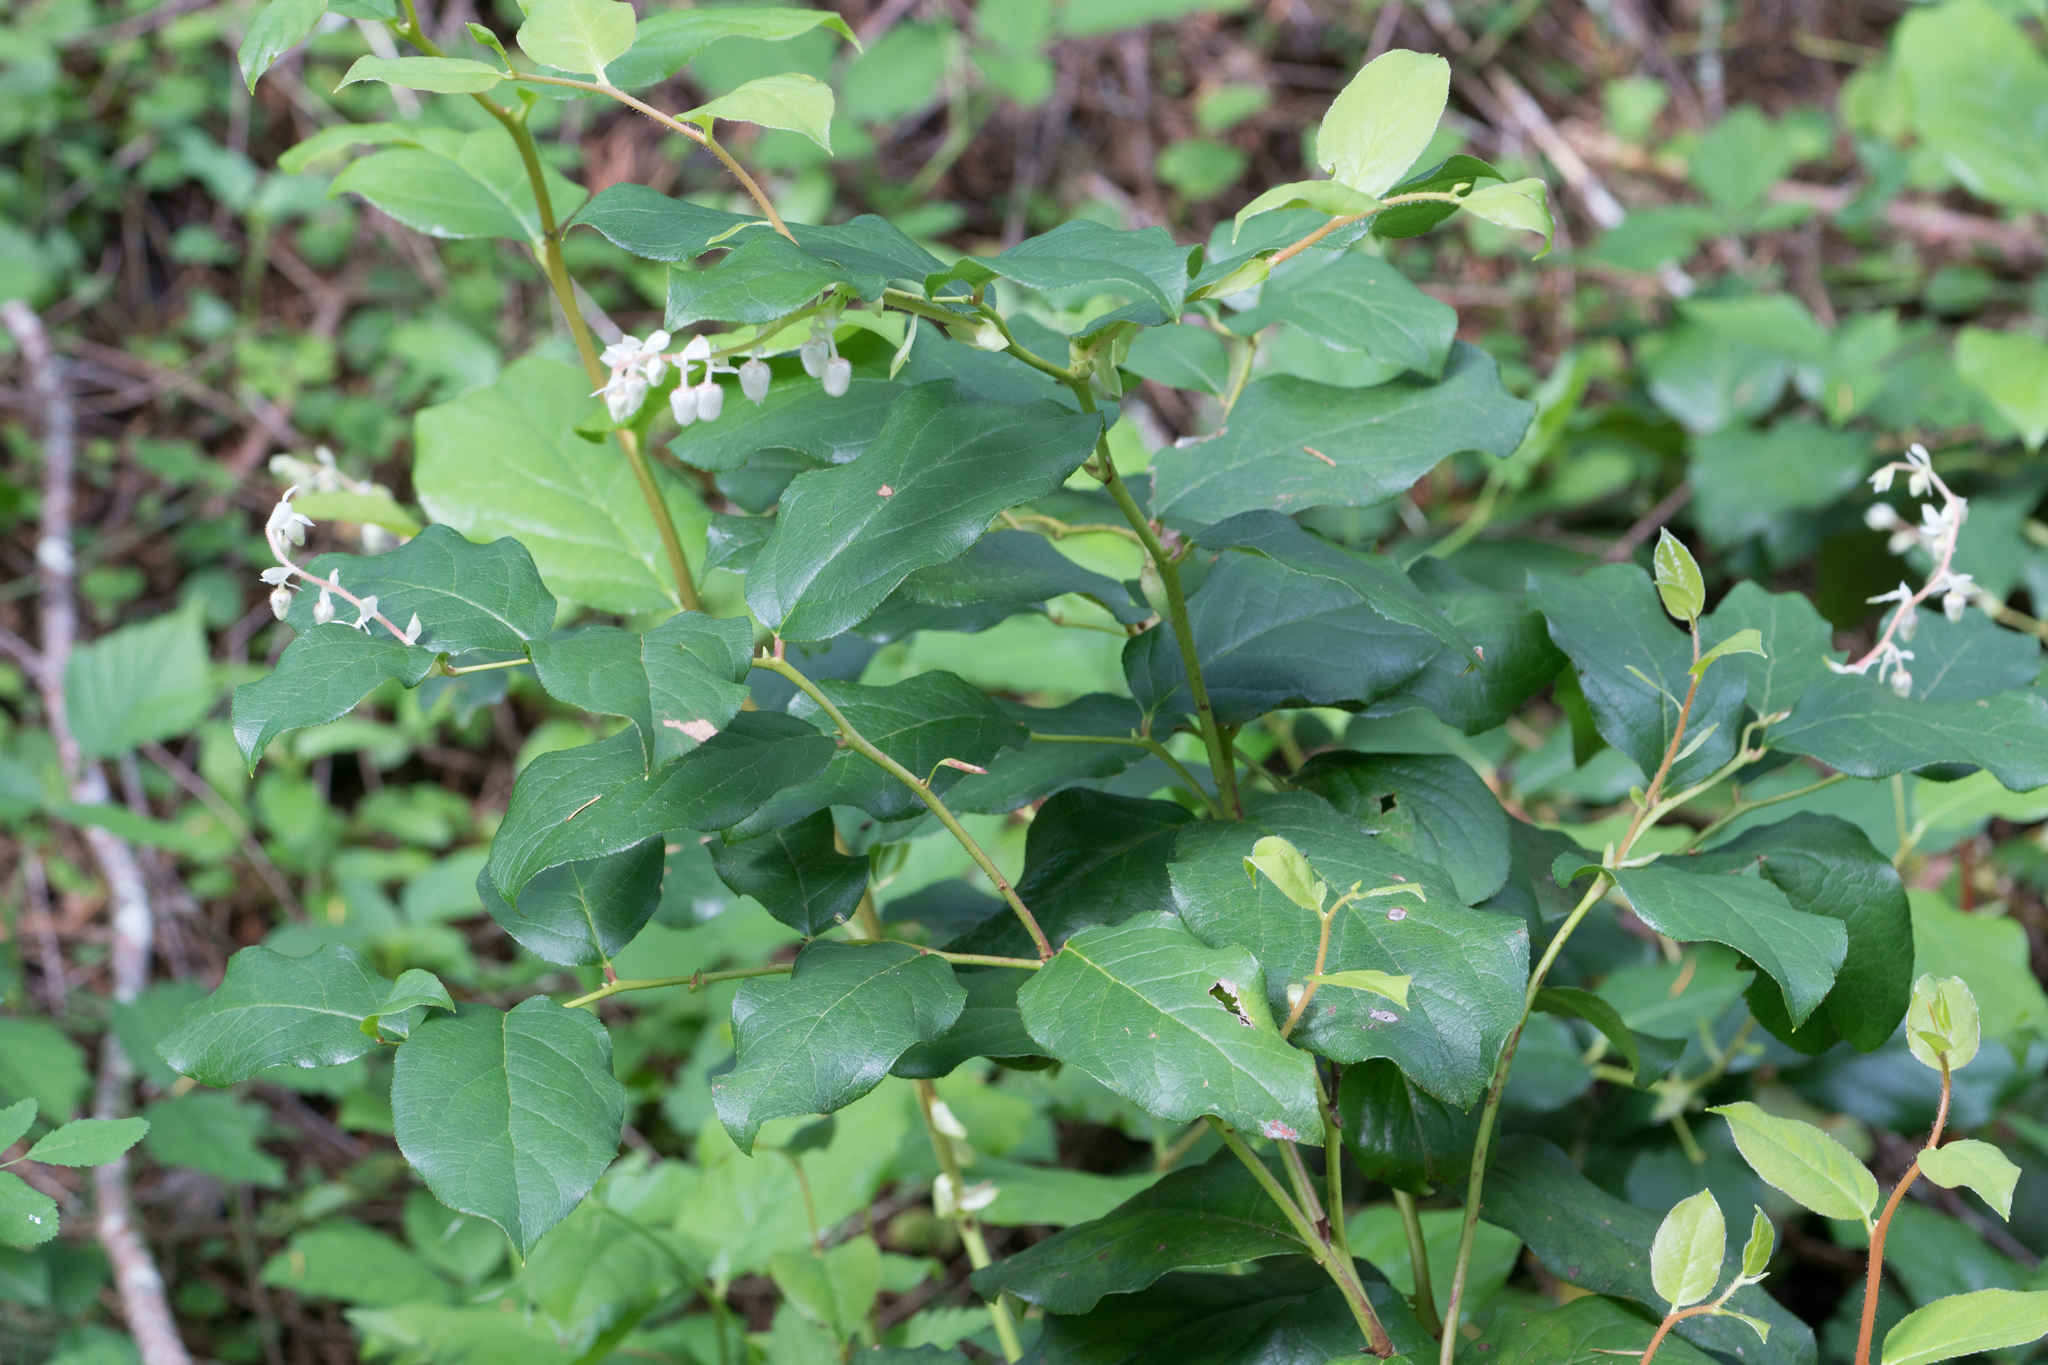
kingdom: Plantae
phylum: Tracheophyta
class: Magnoliopsida
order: Ericales
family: Ericaceae
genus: Gaultheria
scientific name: Gaultheria shallon
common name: Shallon
